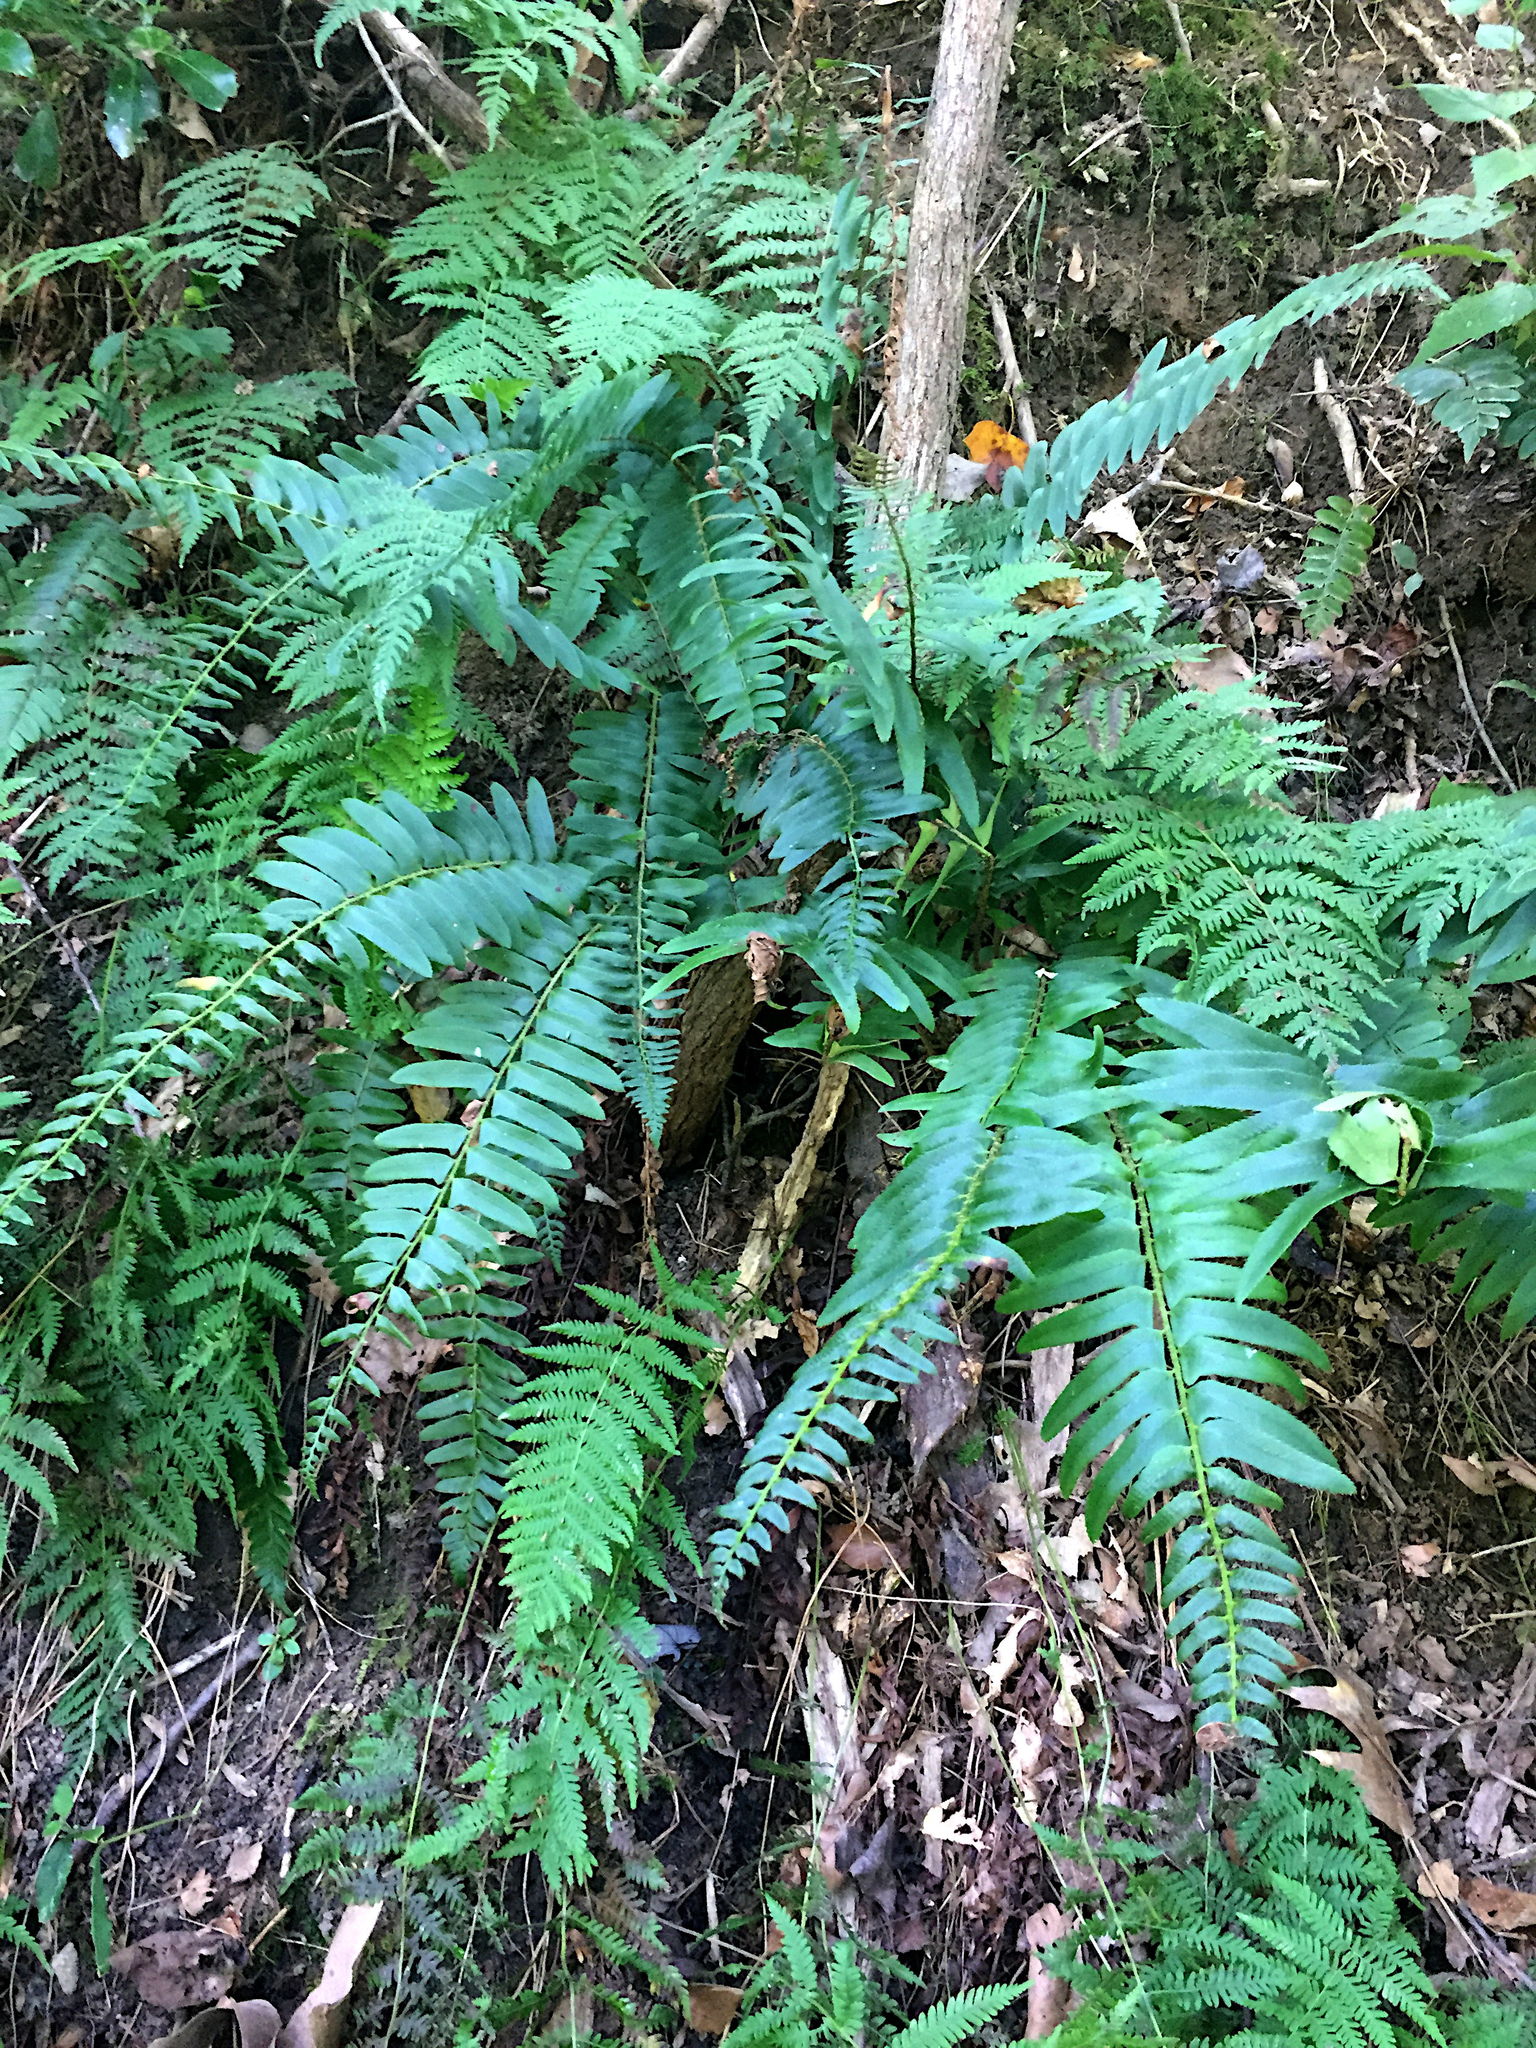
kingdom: Plantae
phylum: Tracheophyta
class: Polypodiopsida
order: Polypodiales
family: Dryopteridaceae
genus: Polystichum
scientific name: Polystichum acrostichoides
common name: Christmas fern
